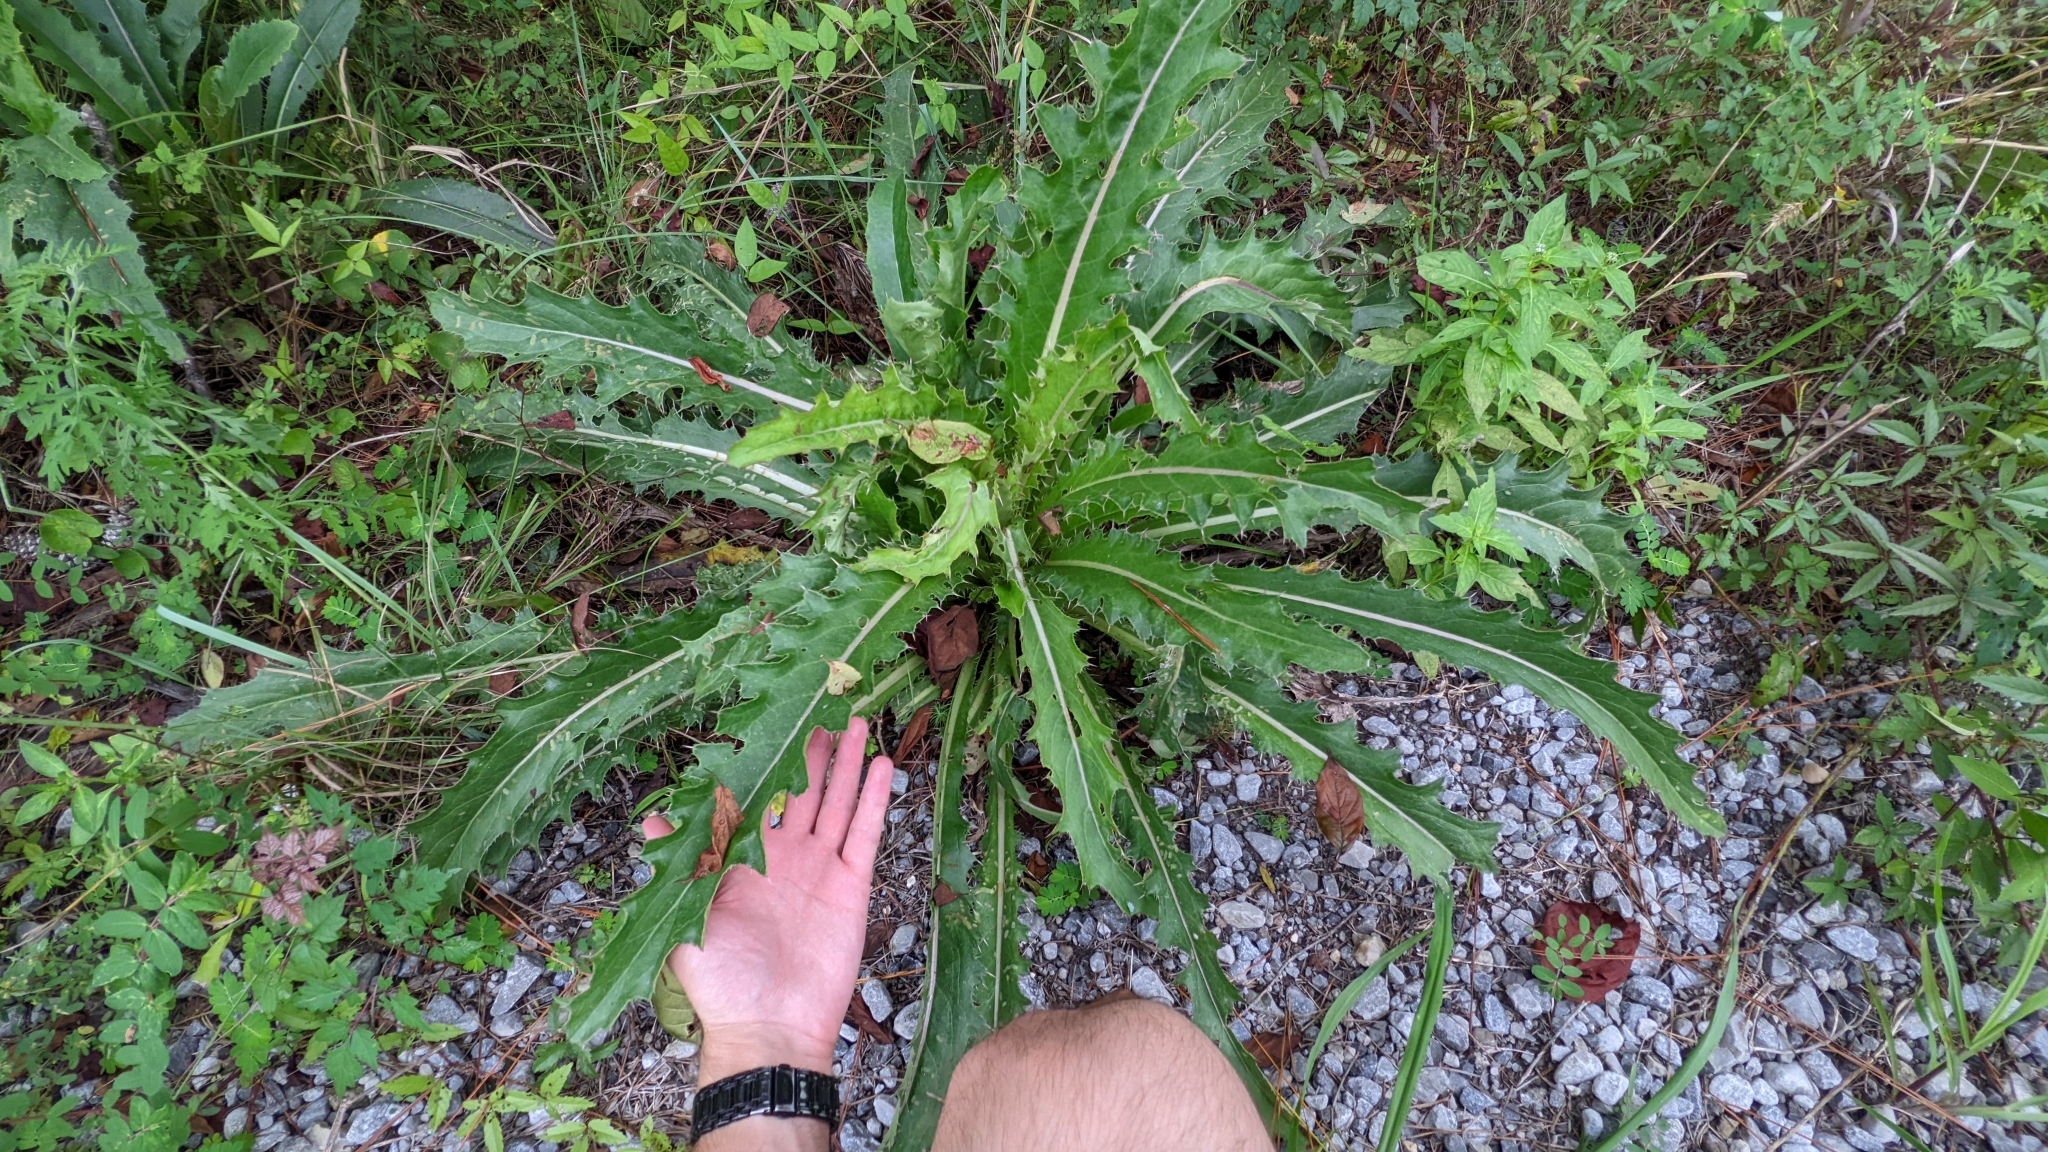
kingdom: Plantae
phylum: Tracheophyta
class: Magnoliopsida
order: Asterales
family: Asteraceae
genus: Cirsium
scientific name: Cirsium horridulum
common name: Bristly thistle
